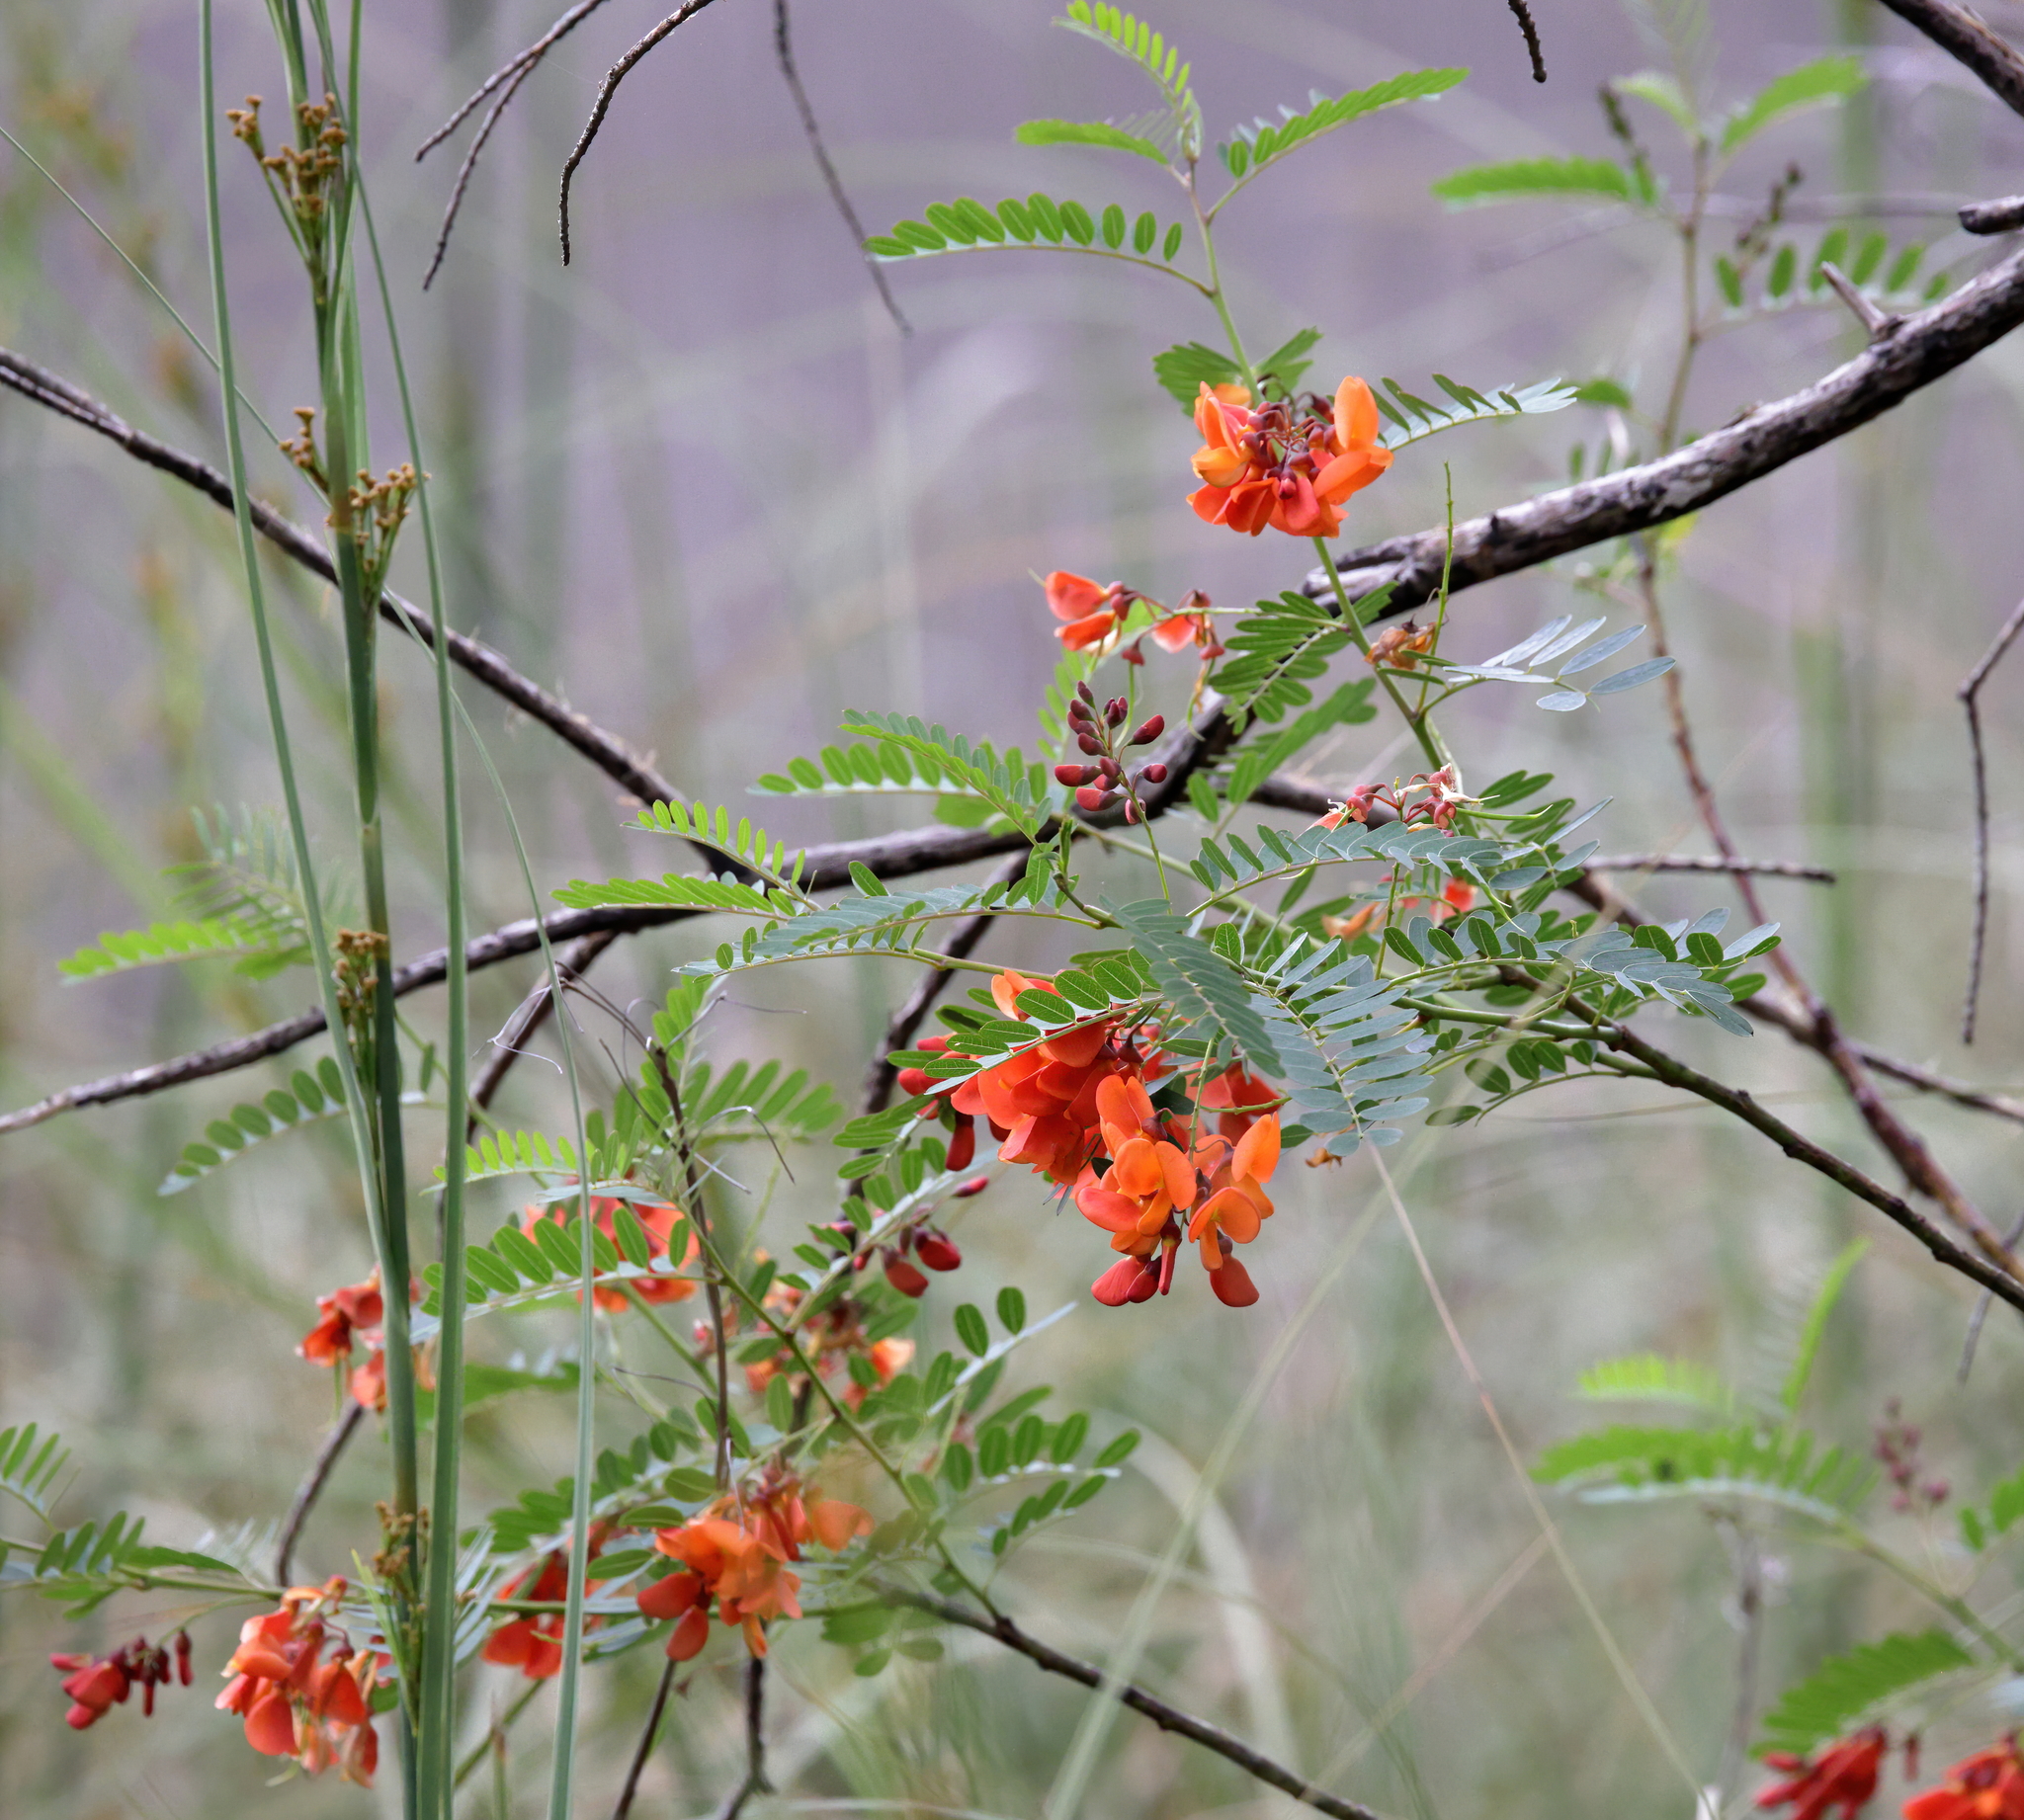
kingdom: Plantae
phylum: Tracheophyta
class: Magnoliopsida
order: Fabales
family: Fabaceae
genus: Sesbania
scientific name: Sesbania punicea
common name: Rattlebox
